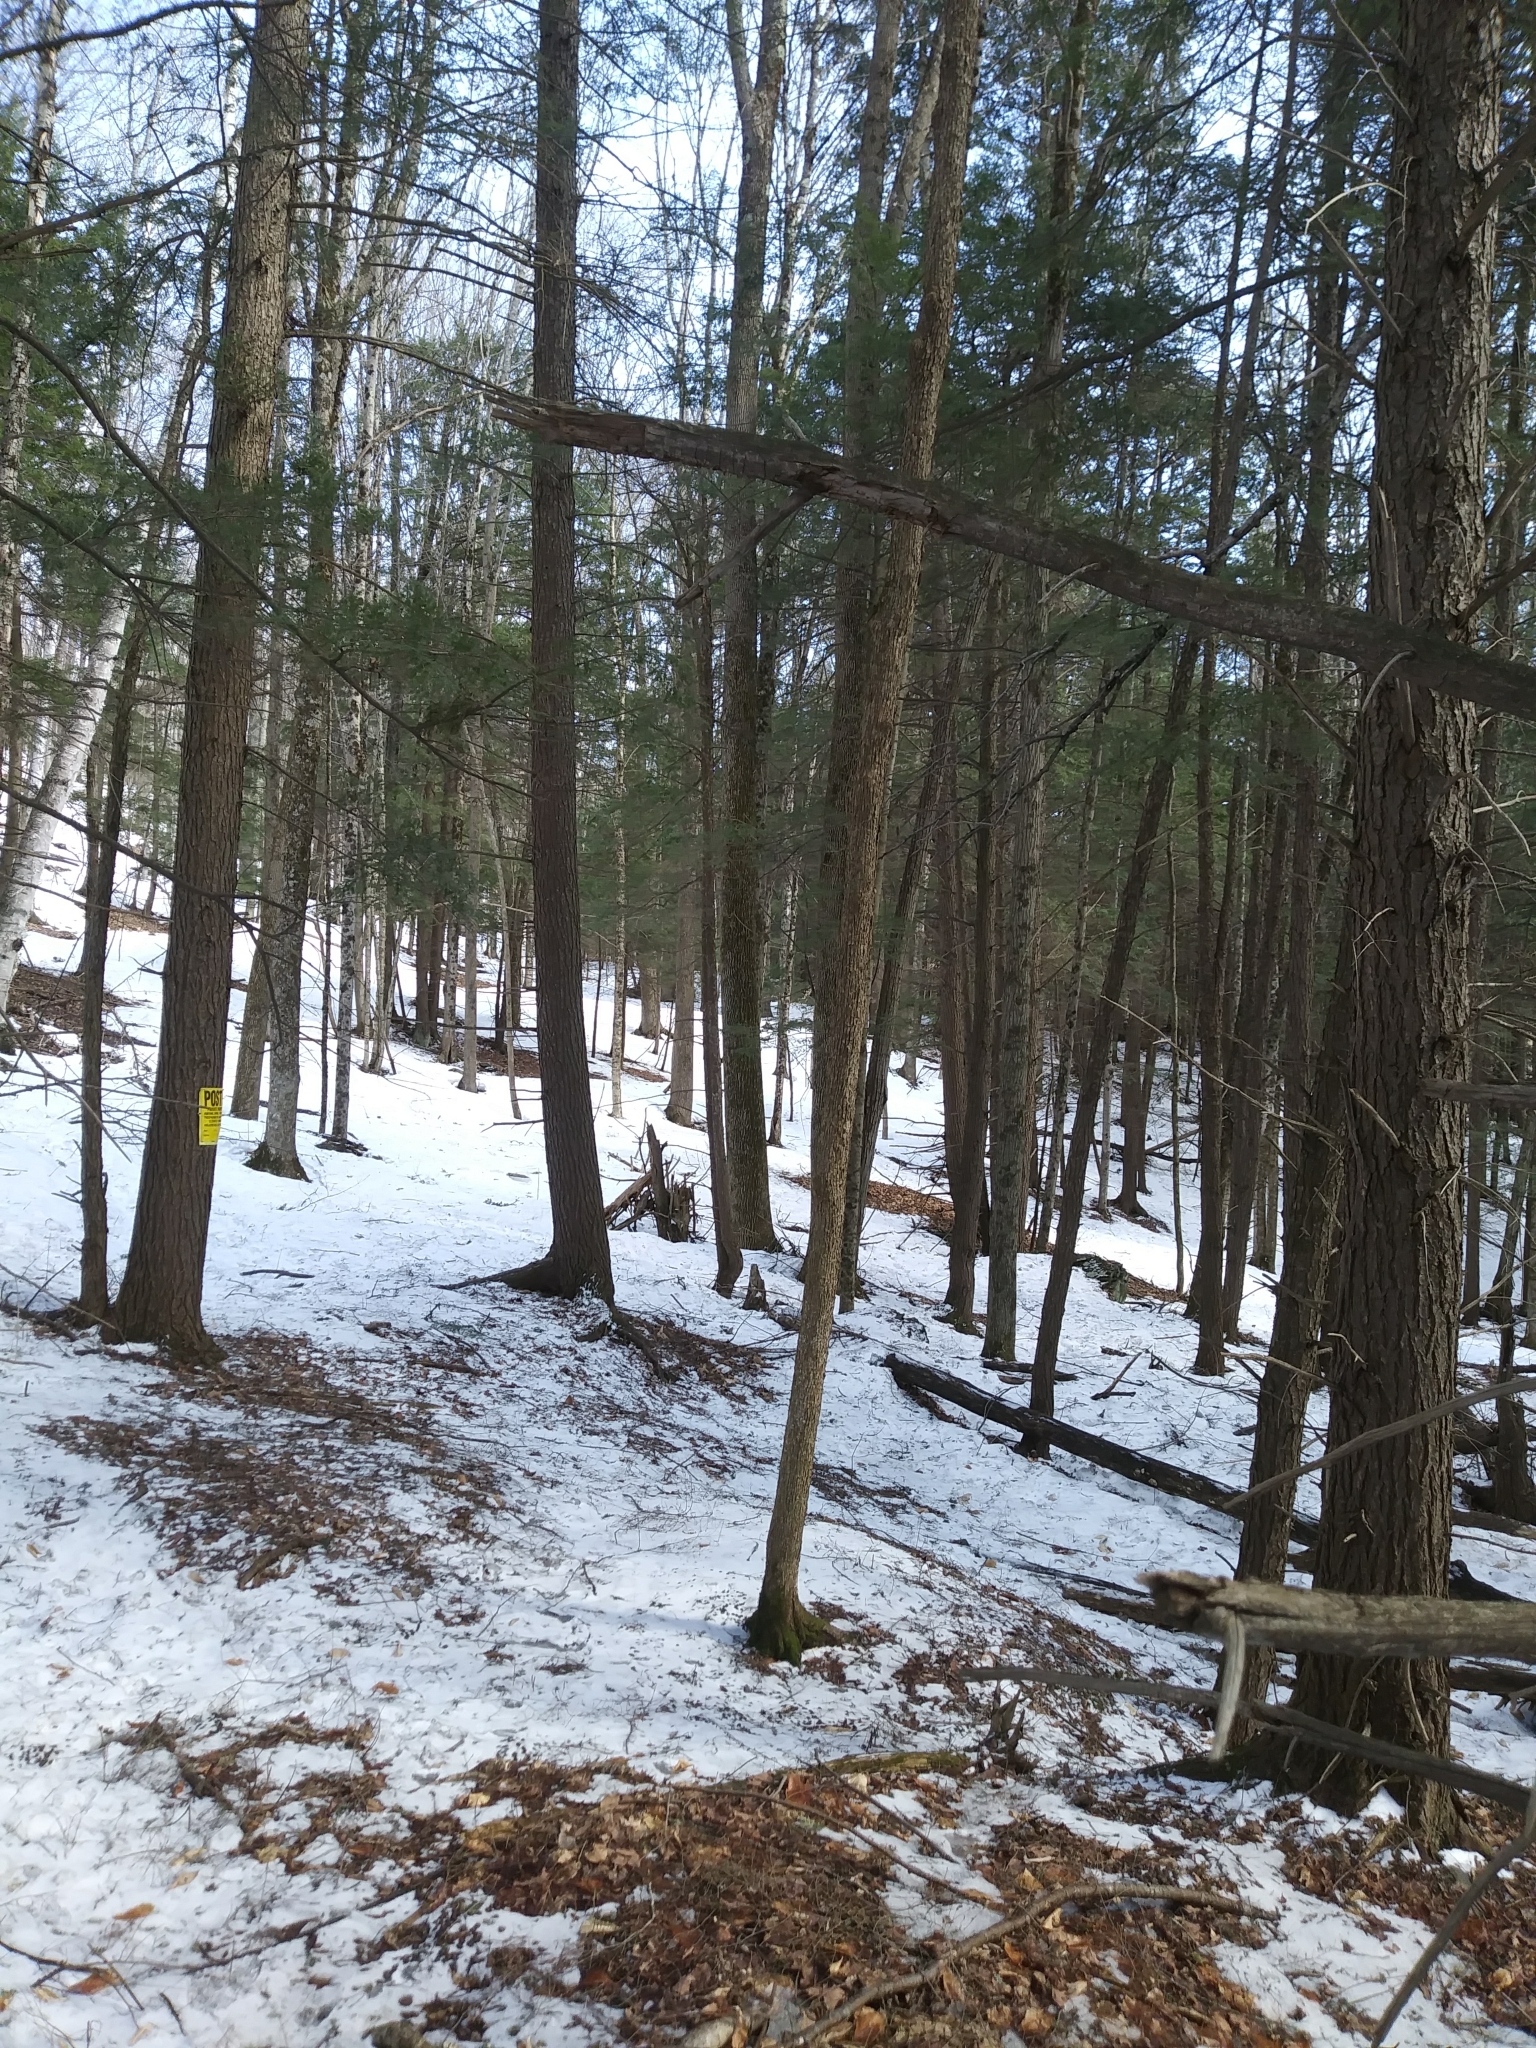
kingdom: Animalia
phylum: Chordata
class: Mammalia
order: Artiodactyla
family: Cervidae
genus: Odocoileus
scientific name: Odocoileus virginianus
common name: White-tailed deer
